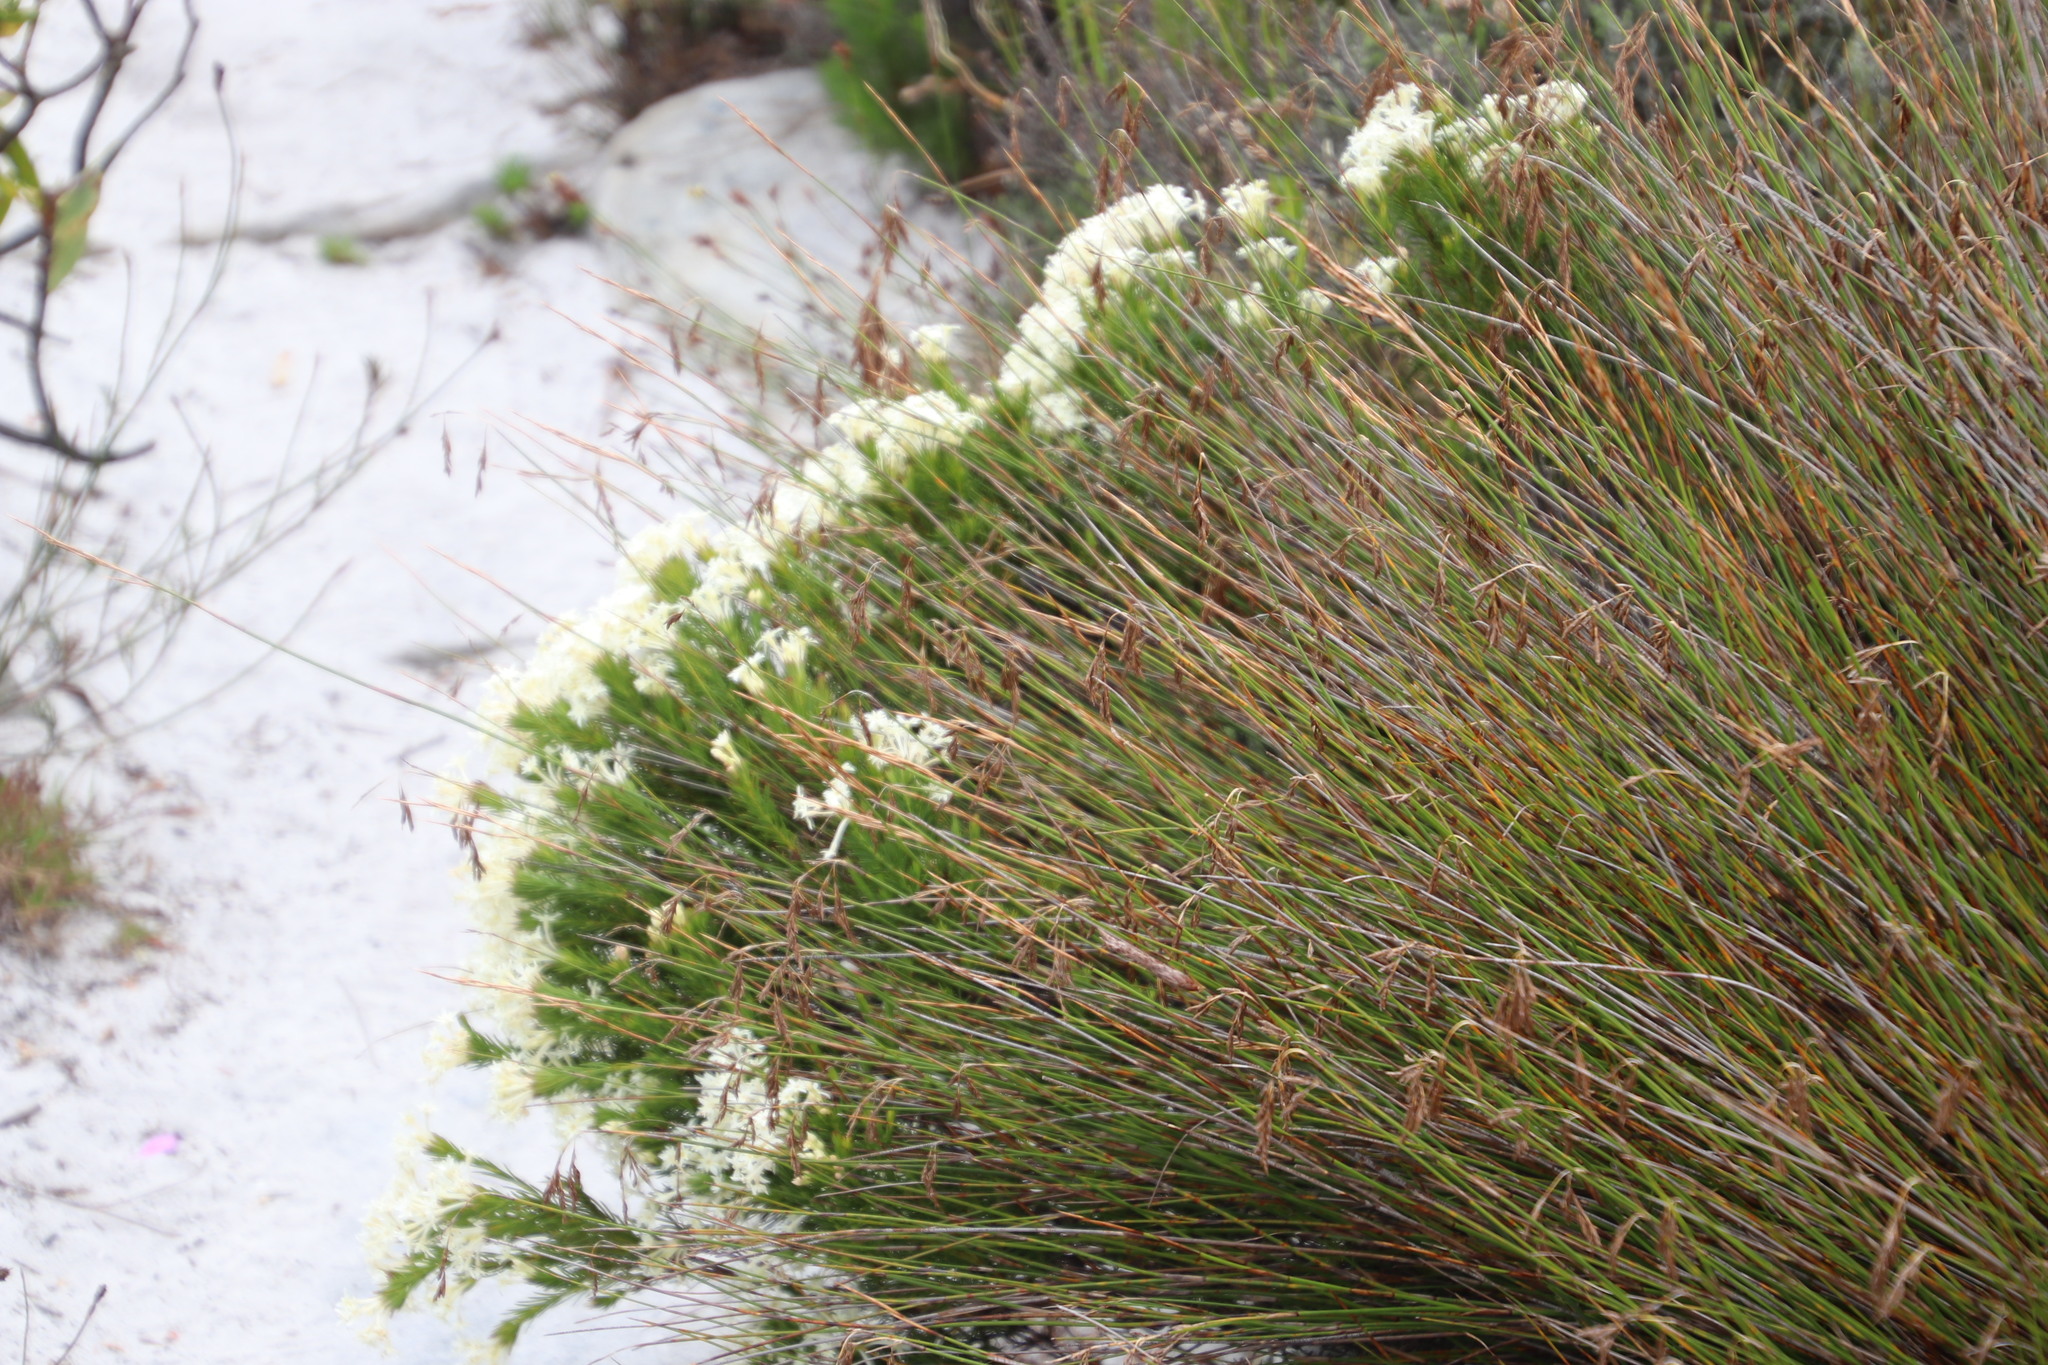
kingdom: Plantae
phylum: Tracheophyta
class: Magnoliopsida
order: Malvales
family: Thymelaeaceae
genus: Gnidia
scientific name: Gnidia pinifolia
